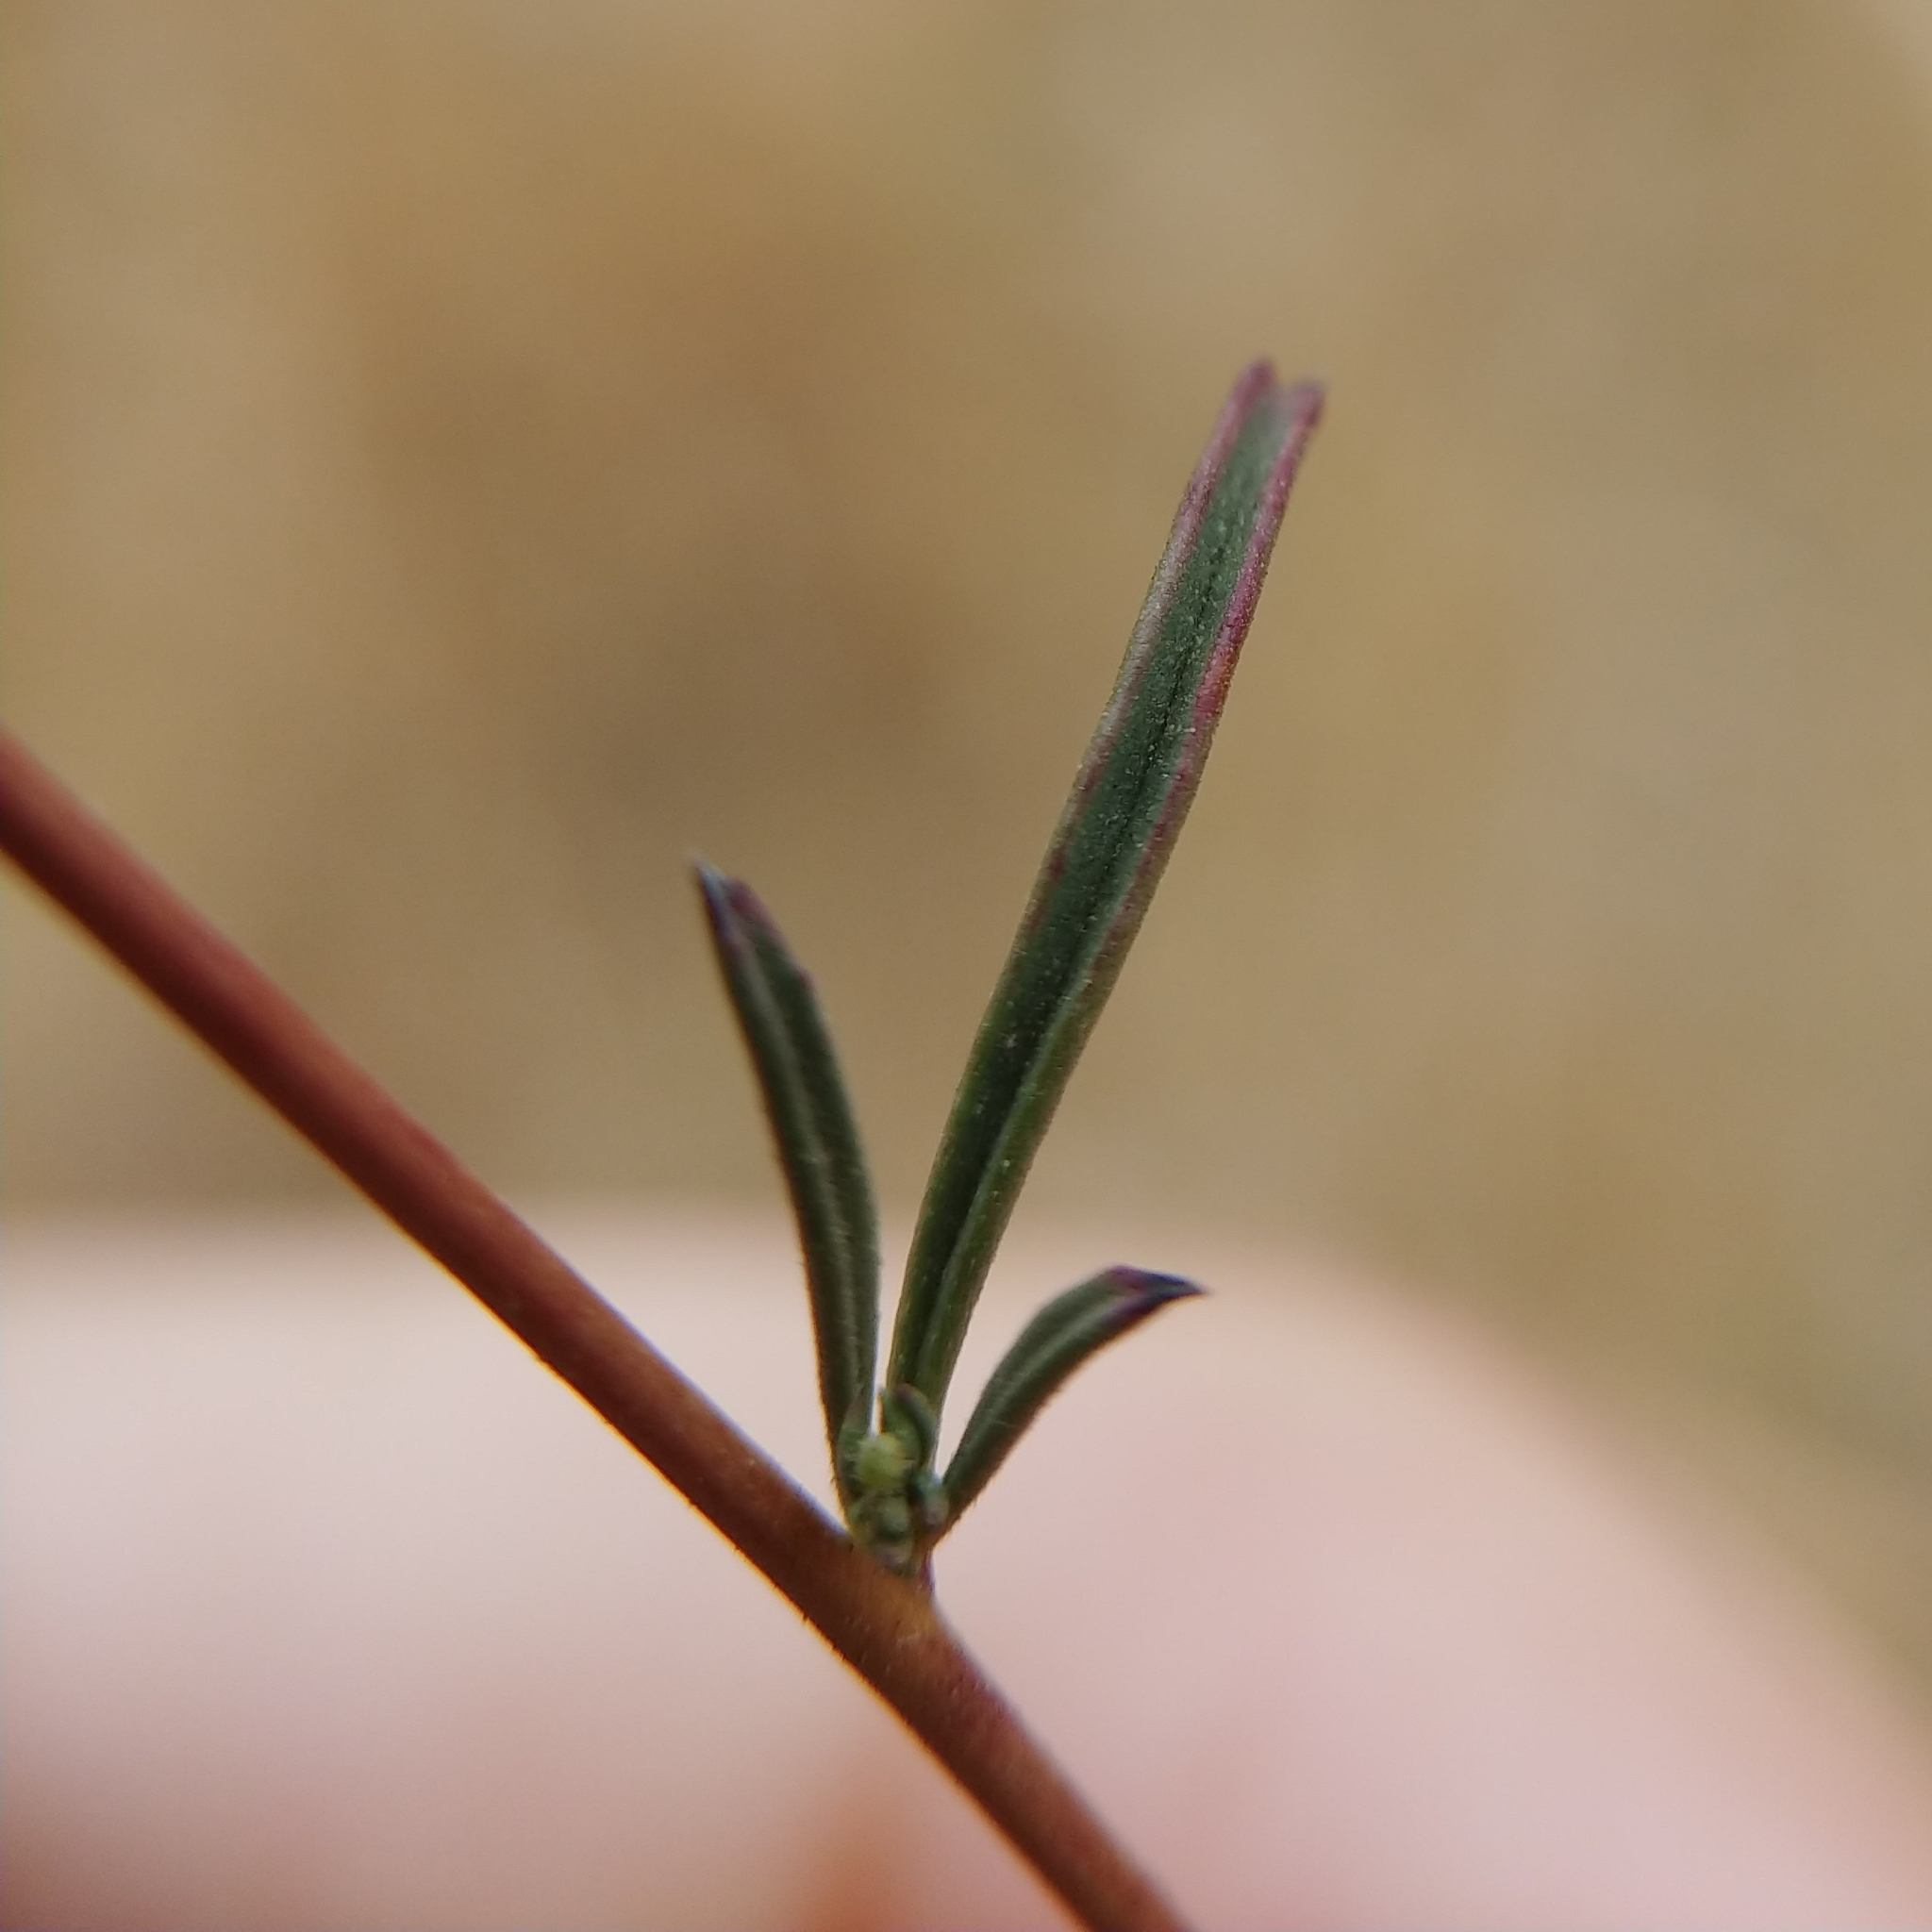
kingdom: Plantae
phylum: Tracheophyta
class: Magnoliopsida
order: Myrtales
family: Onagraceae
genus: Epilobium
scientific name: Epilobium brachycarpum
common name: Annual willowherb
